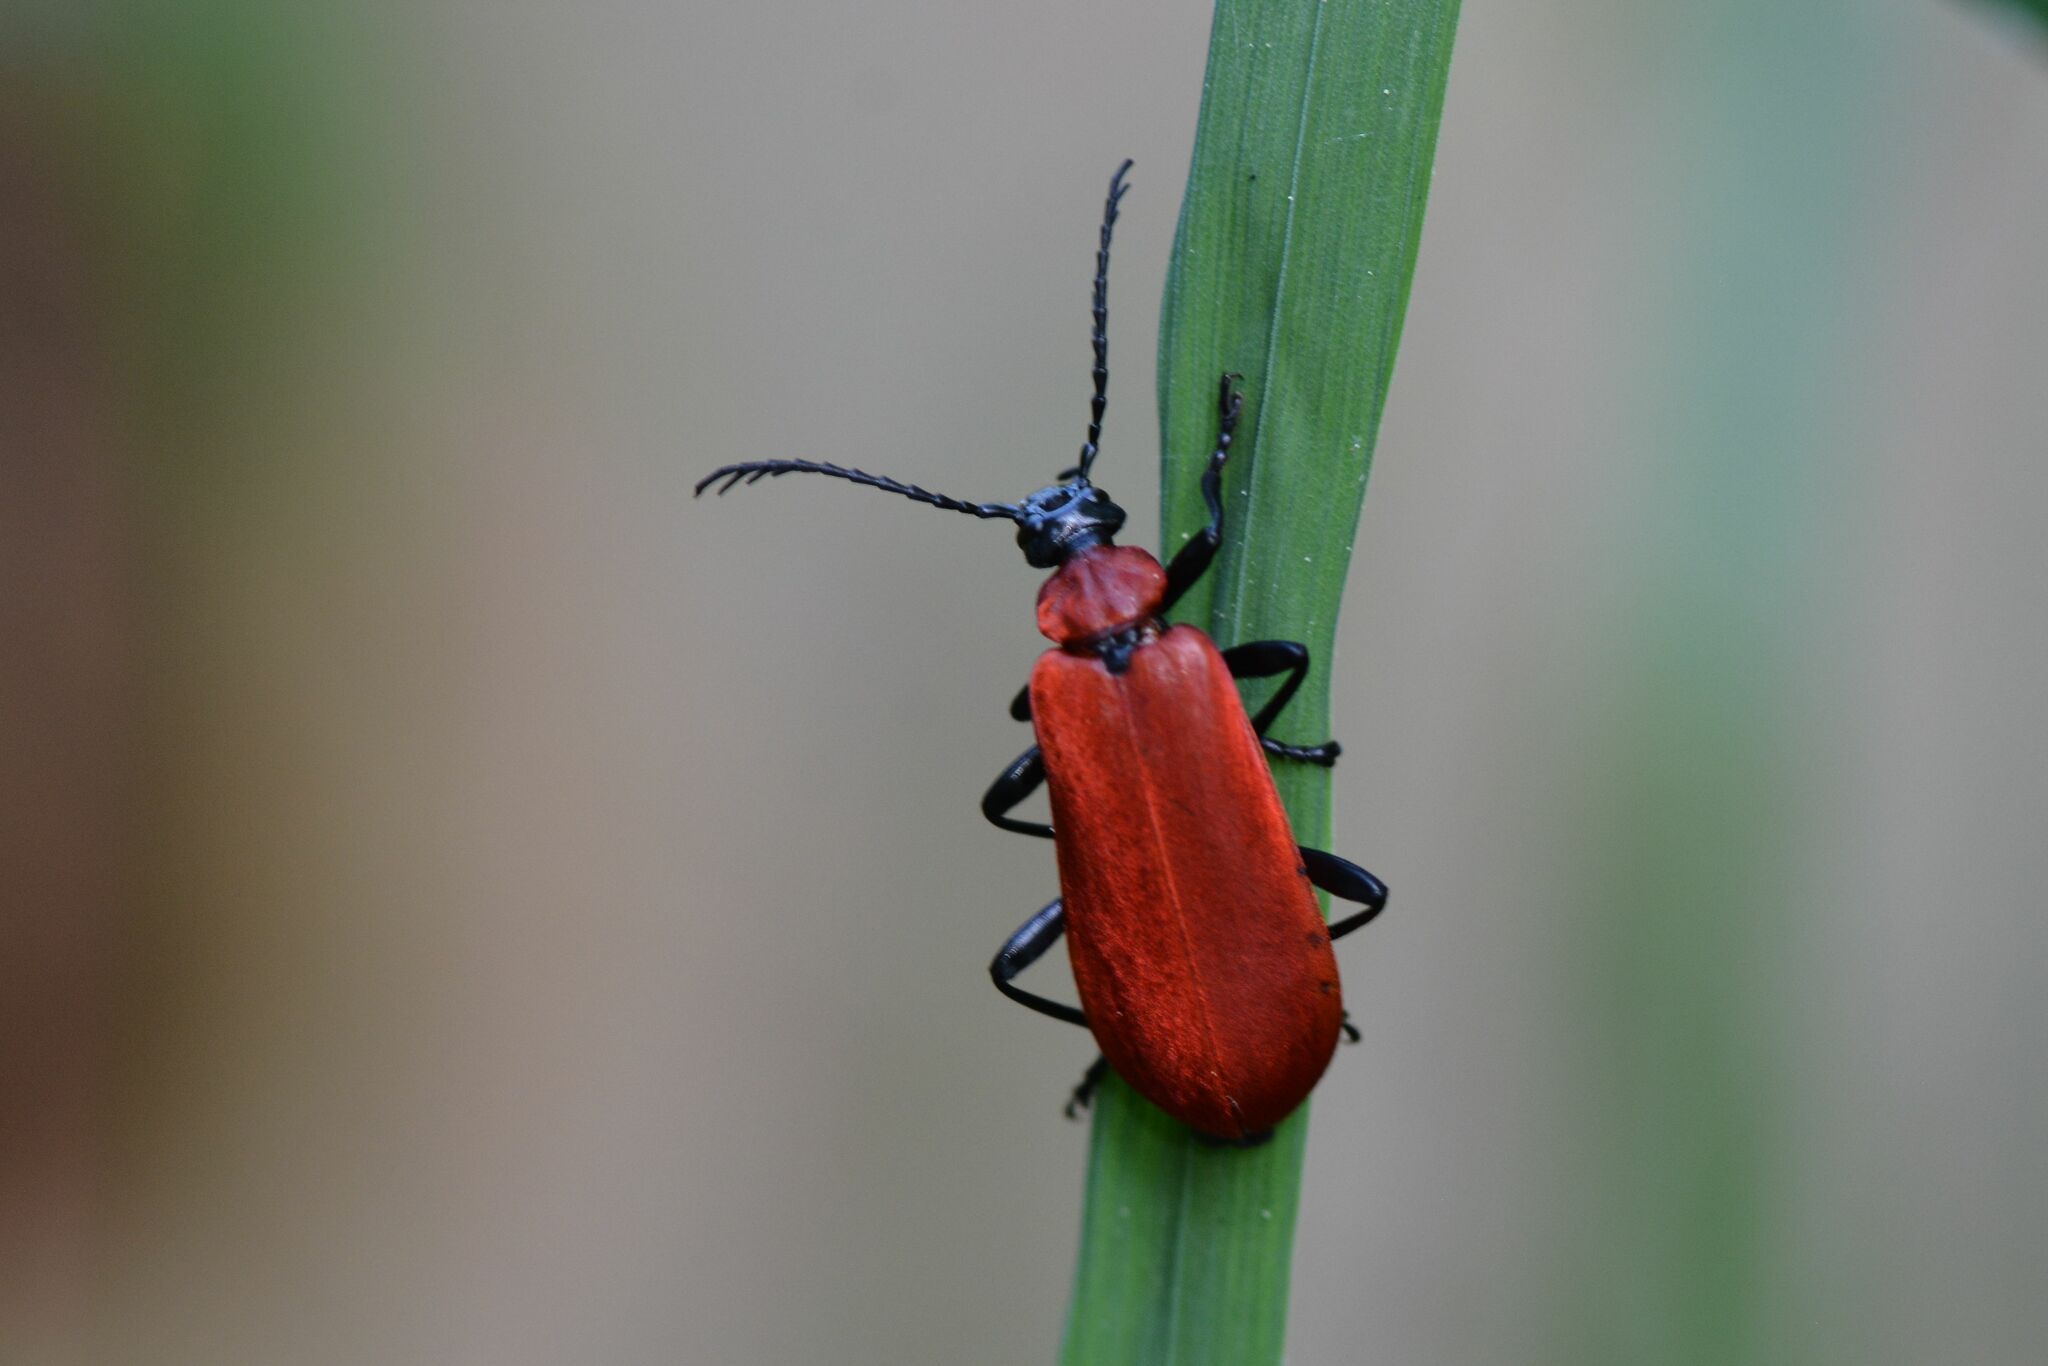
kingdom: Animalia
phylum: Arthropoda
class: Insecta
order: Coleoptera
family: Pyrochroidae
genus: Pyrochroa
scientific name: Pyrochroa coccinea
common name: Black-headed cardinal beetle
